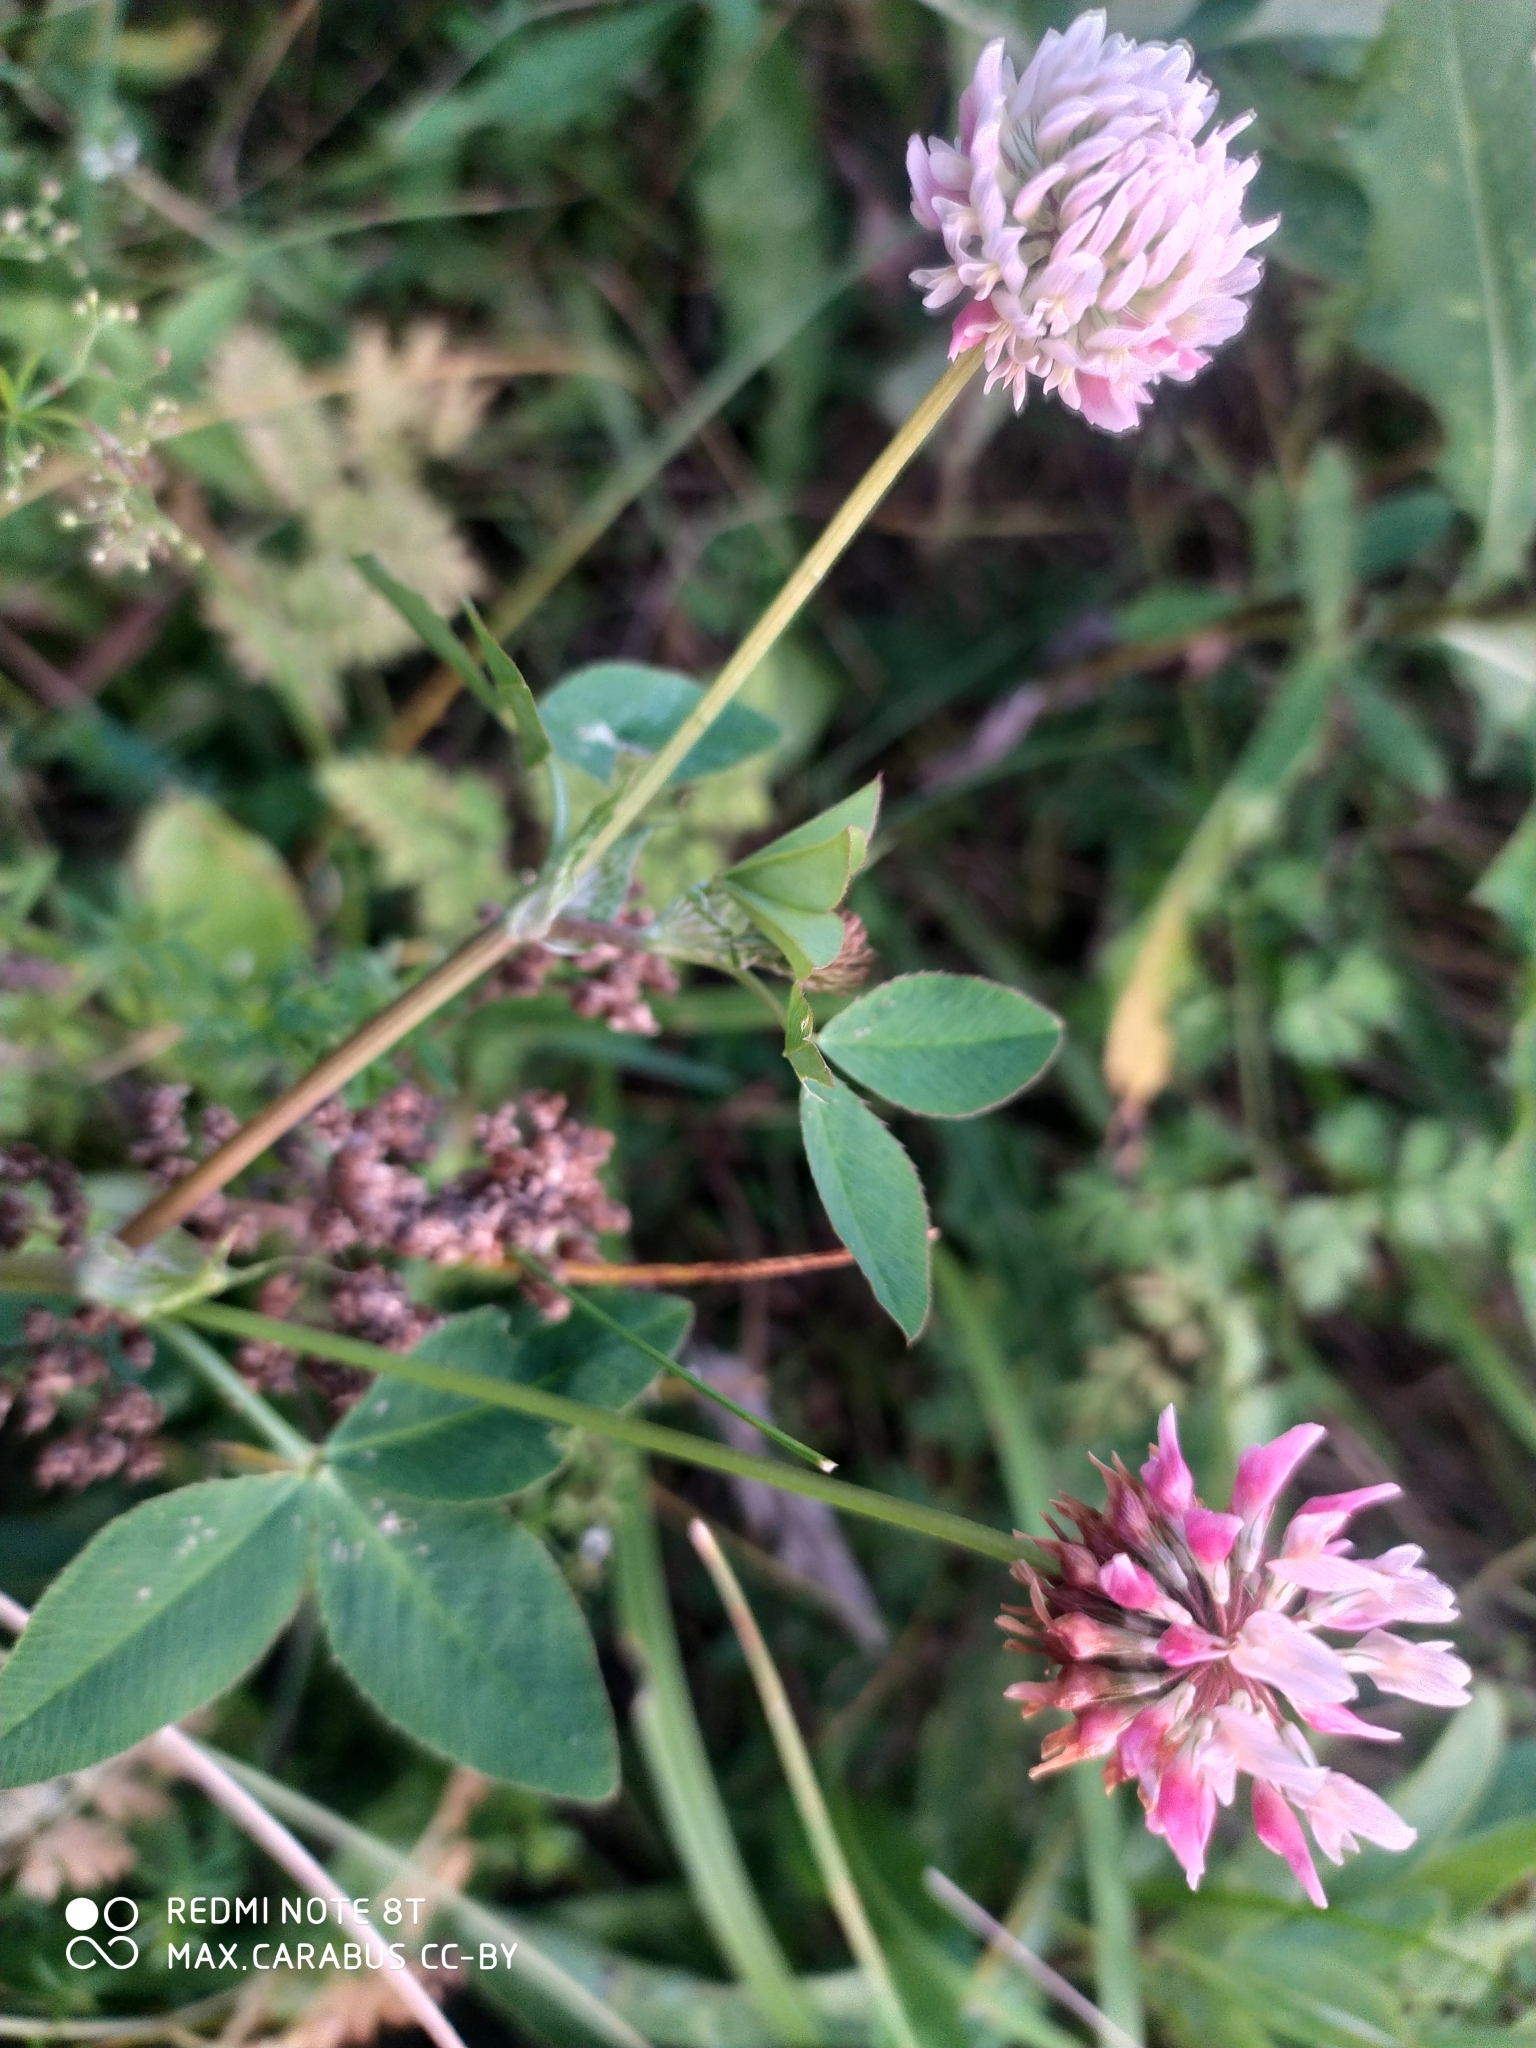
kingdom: Plantae
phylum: Tracheophyta
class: Magnoliopsida
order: Fabales
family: Fabaceae
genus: Trifolium
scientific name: Trifolium hybridum
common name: Alsike clover
